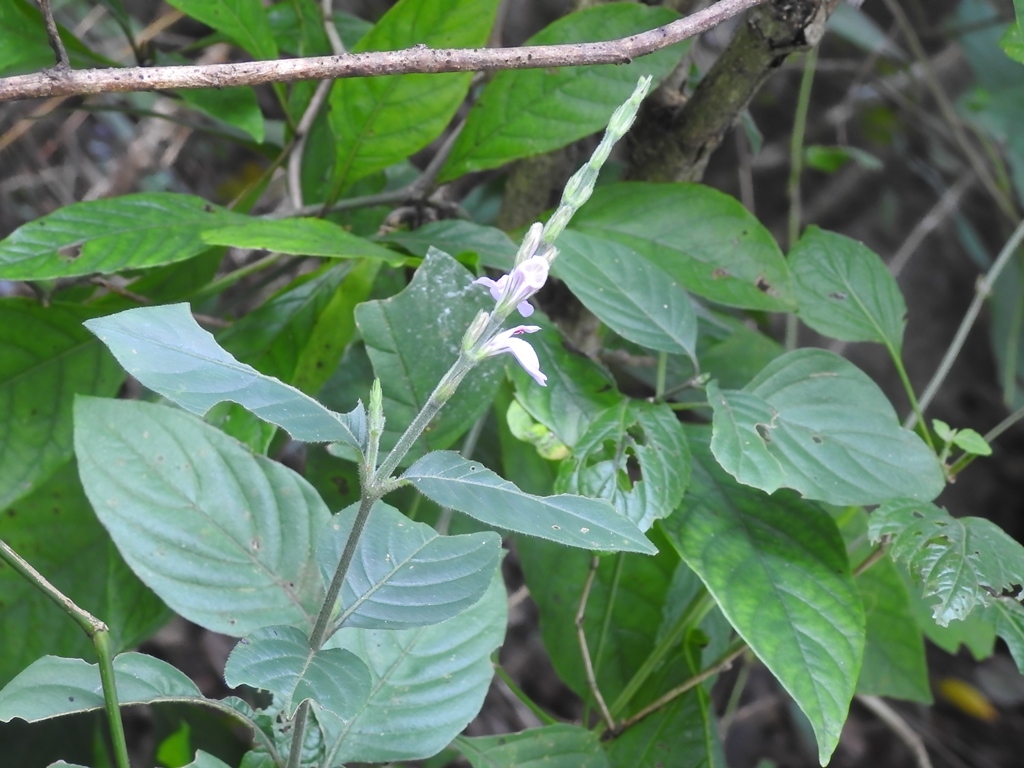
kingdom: Plantae
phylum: Tracheophyta
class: Magnoliopsida
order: Lamiales
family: Acanthaceae
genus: Dianthera
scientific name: Dianthera breviflora
